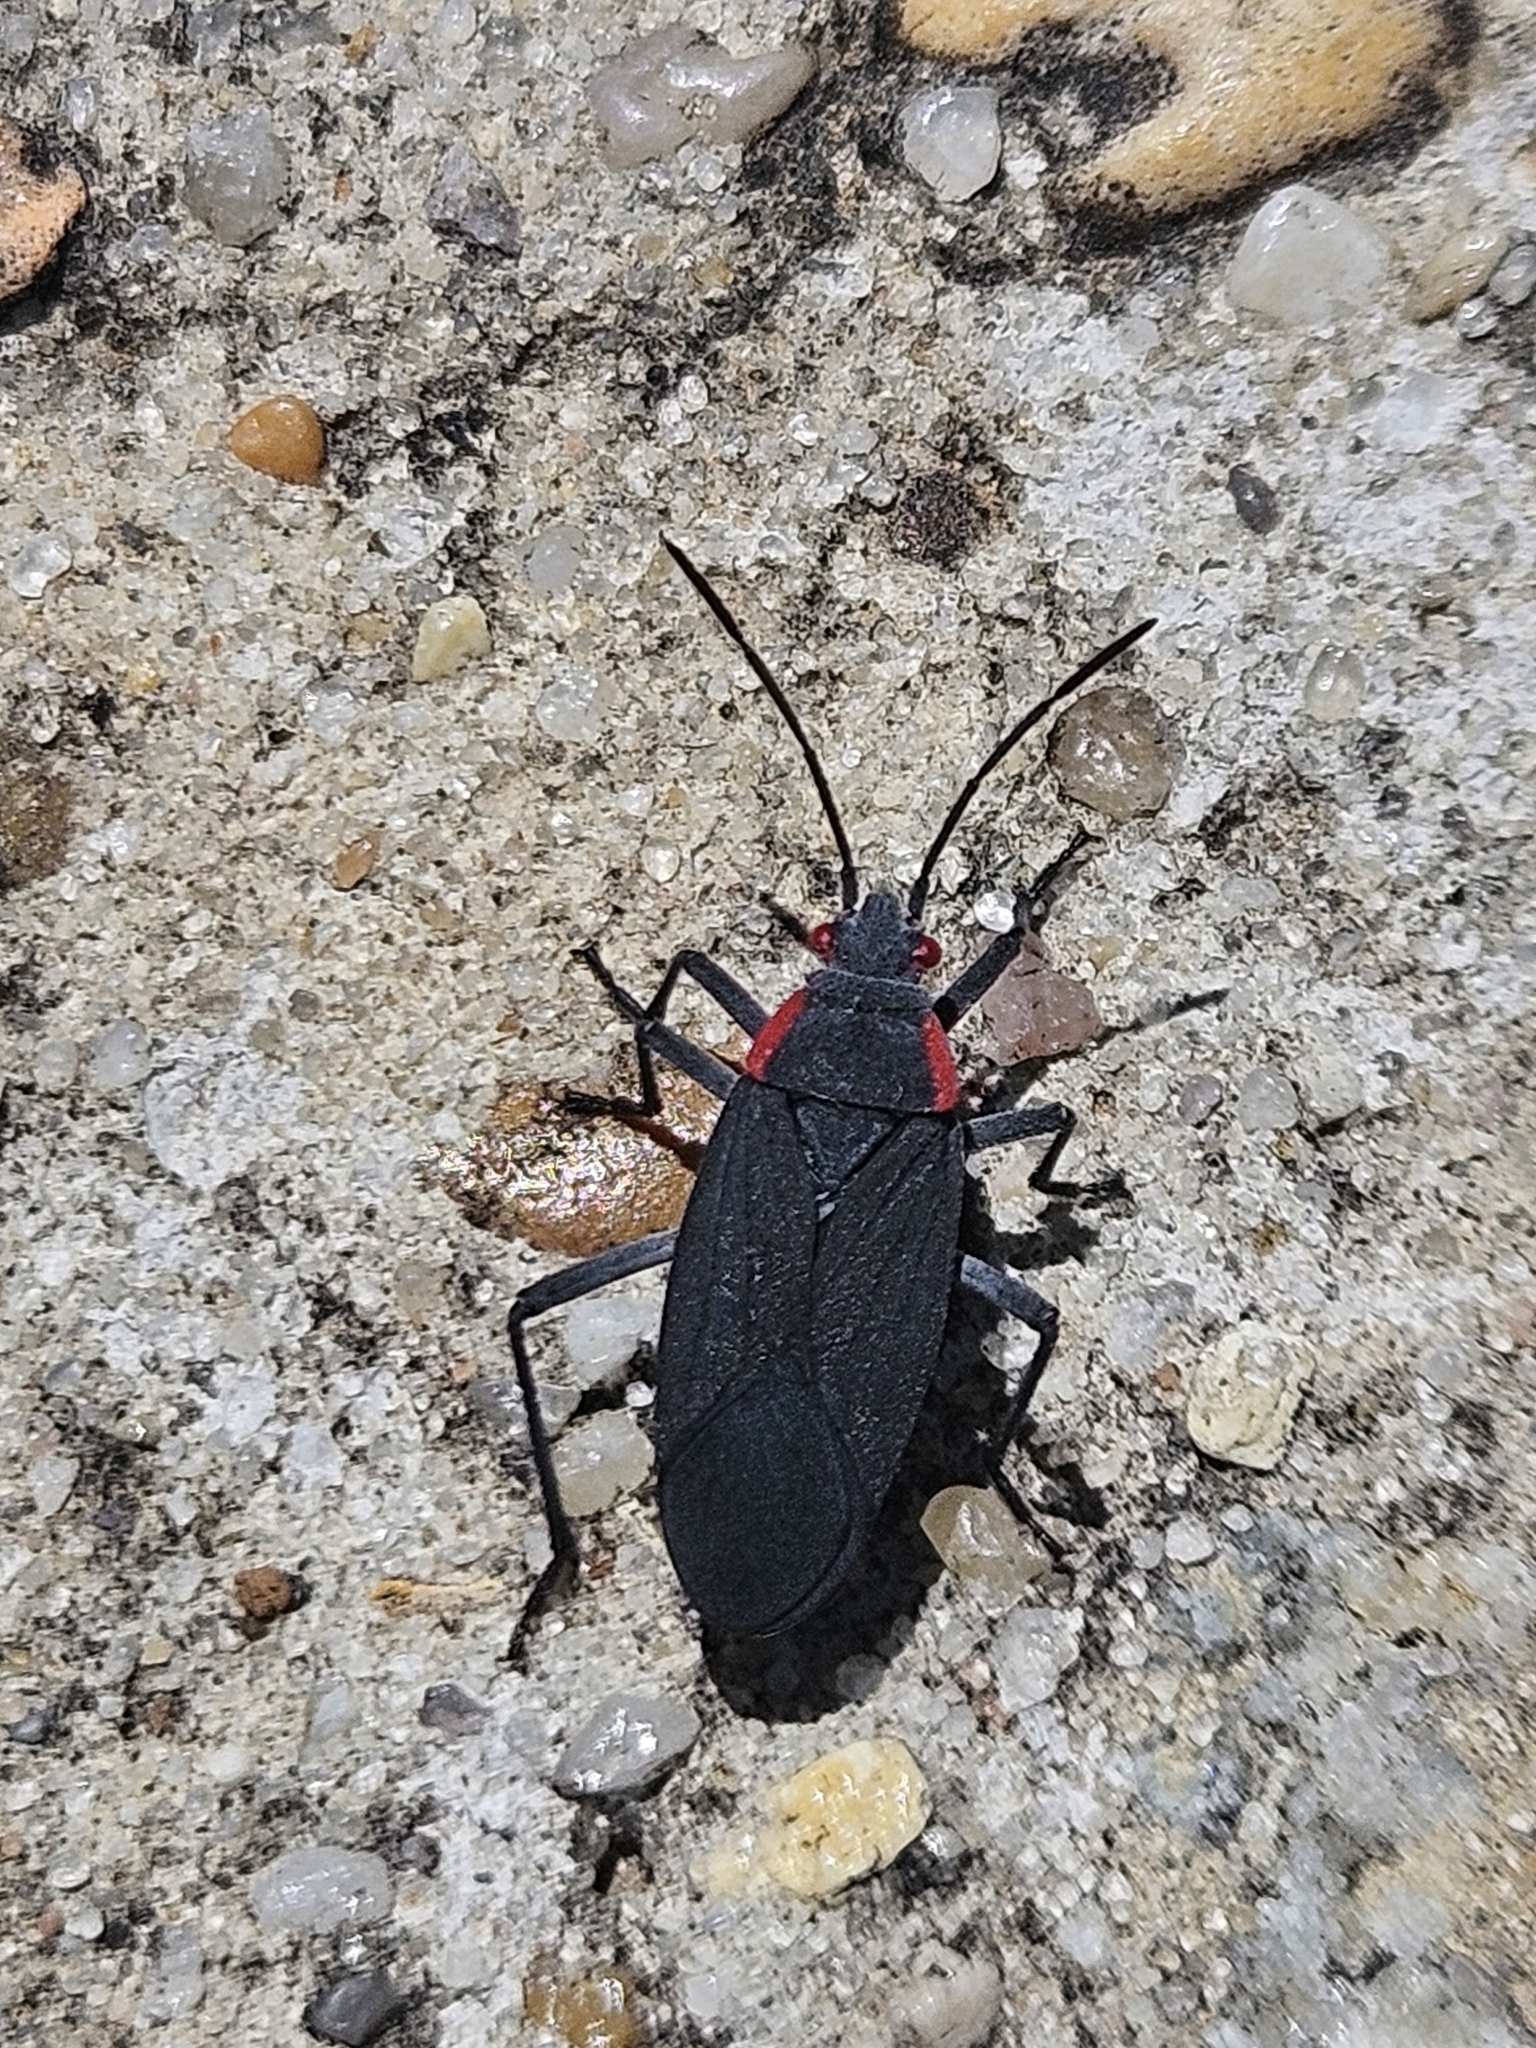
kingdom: Animalia
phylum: Arthropoda
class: Insecta
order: Hemiptera
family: Rhopalidae
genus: Jadera
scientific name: Jadera haematoloma
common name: Red-shouldered bug
